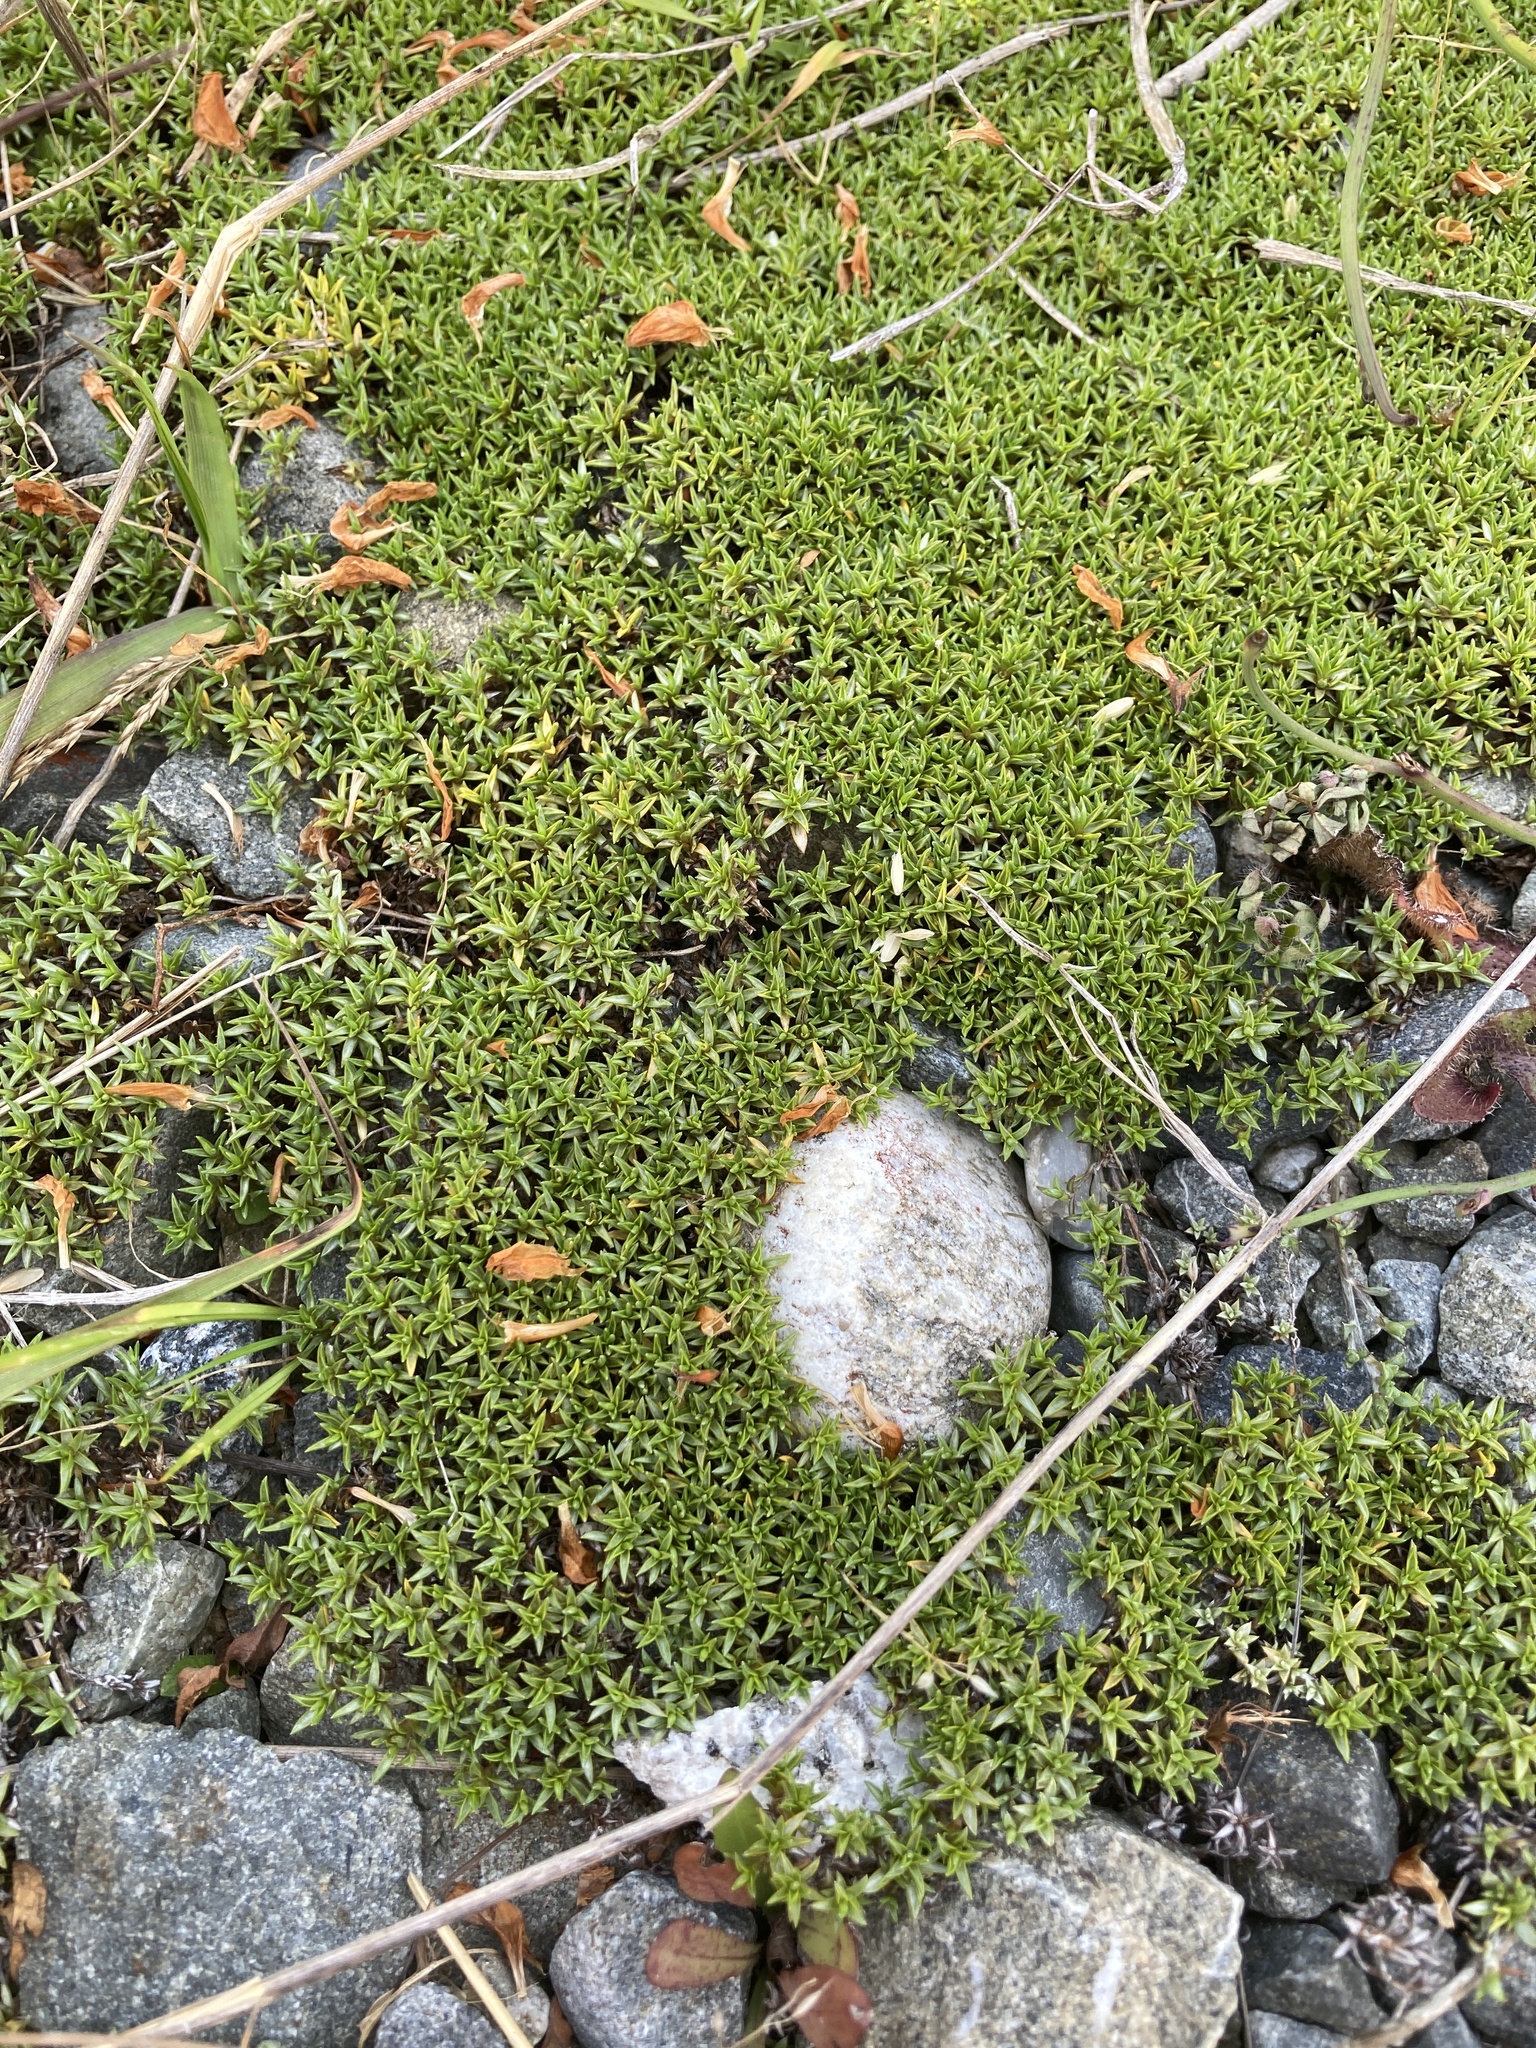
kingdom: Plantae
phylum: Tracheophyta
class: Magnoliopsida
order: Asterales
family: Asteraceae
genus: Raoulia
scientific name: Raoulia tenuicaulis
